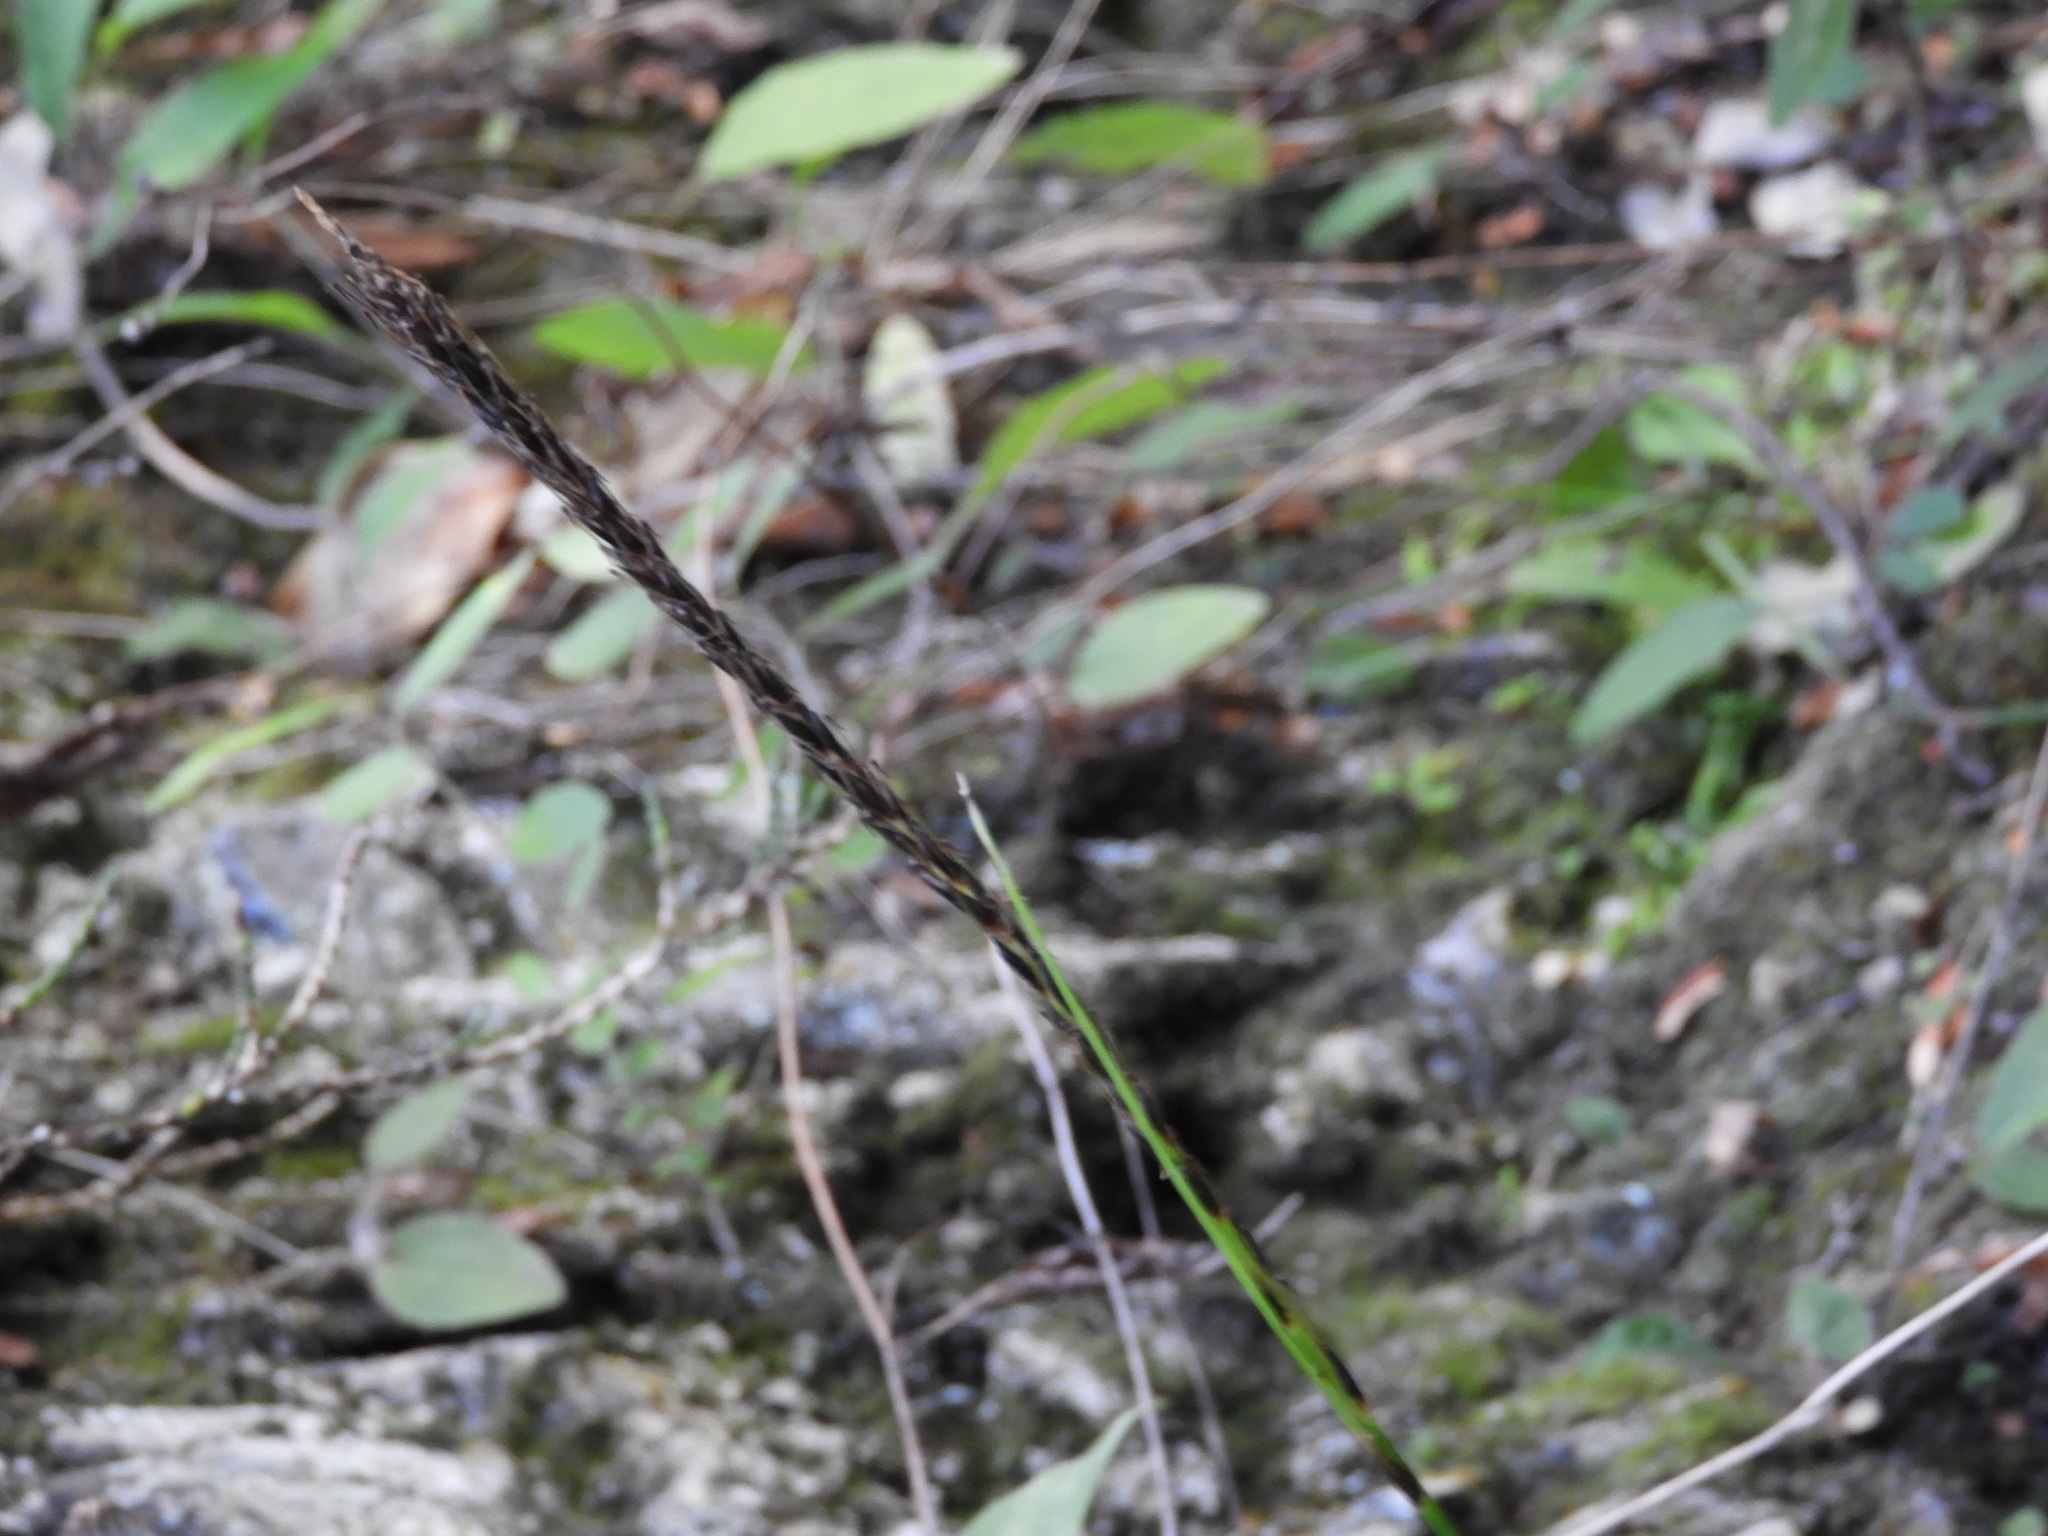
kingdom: Plantae
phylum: Tracheophyta
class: Liliopsida
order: Poales
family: Cyperaceae
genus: Carex
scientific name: Carex uncinata
